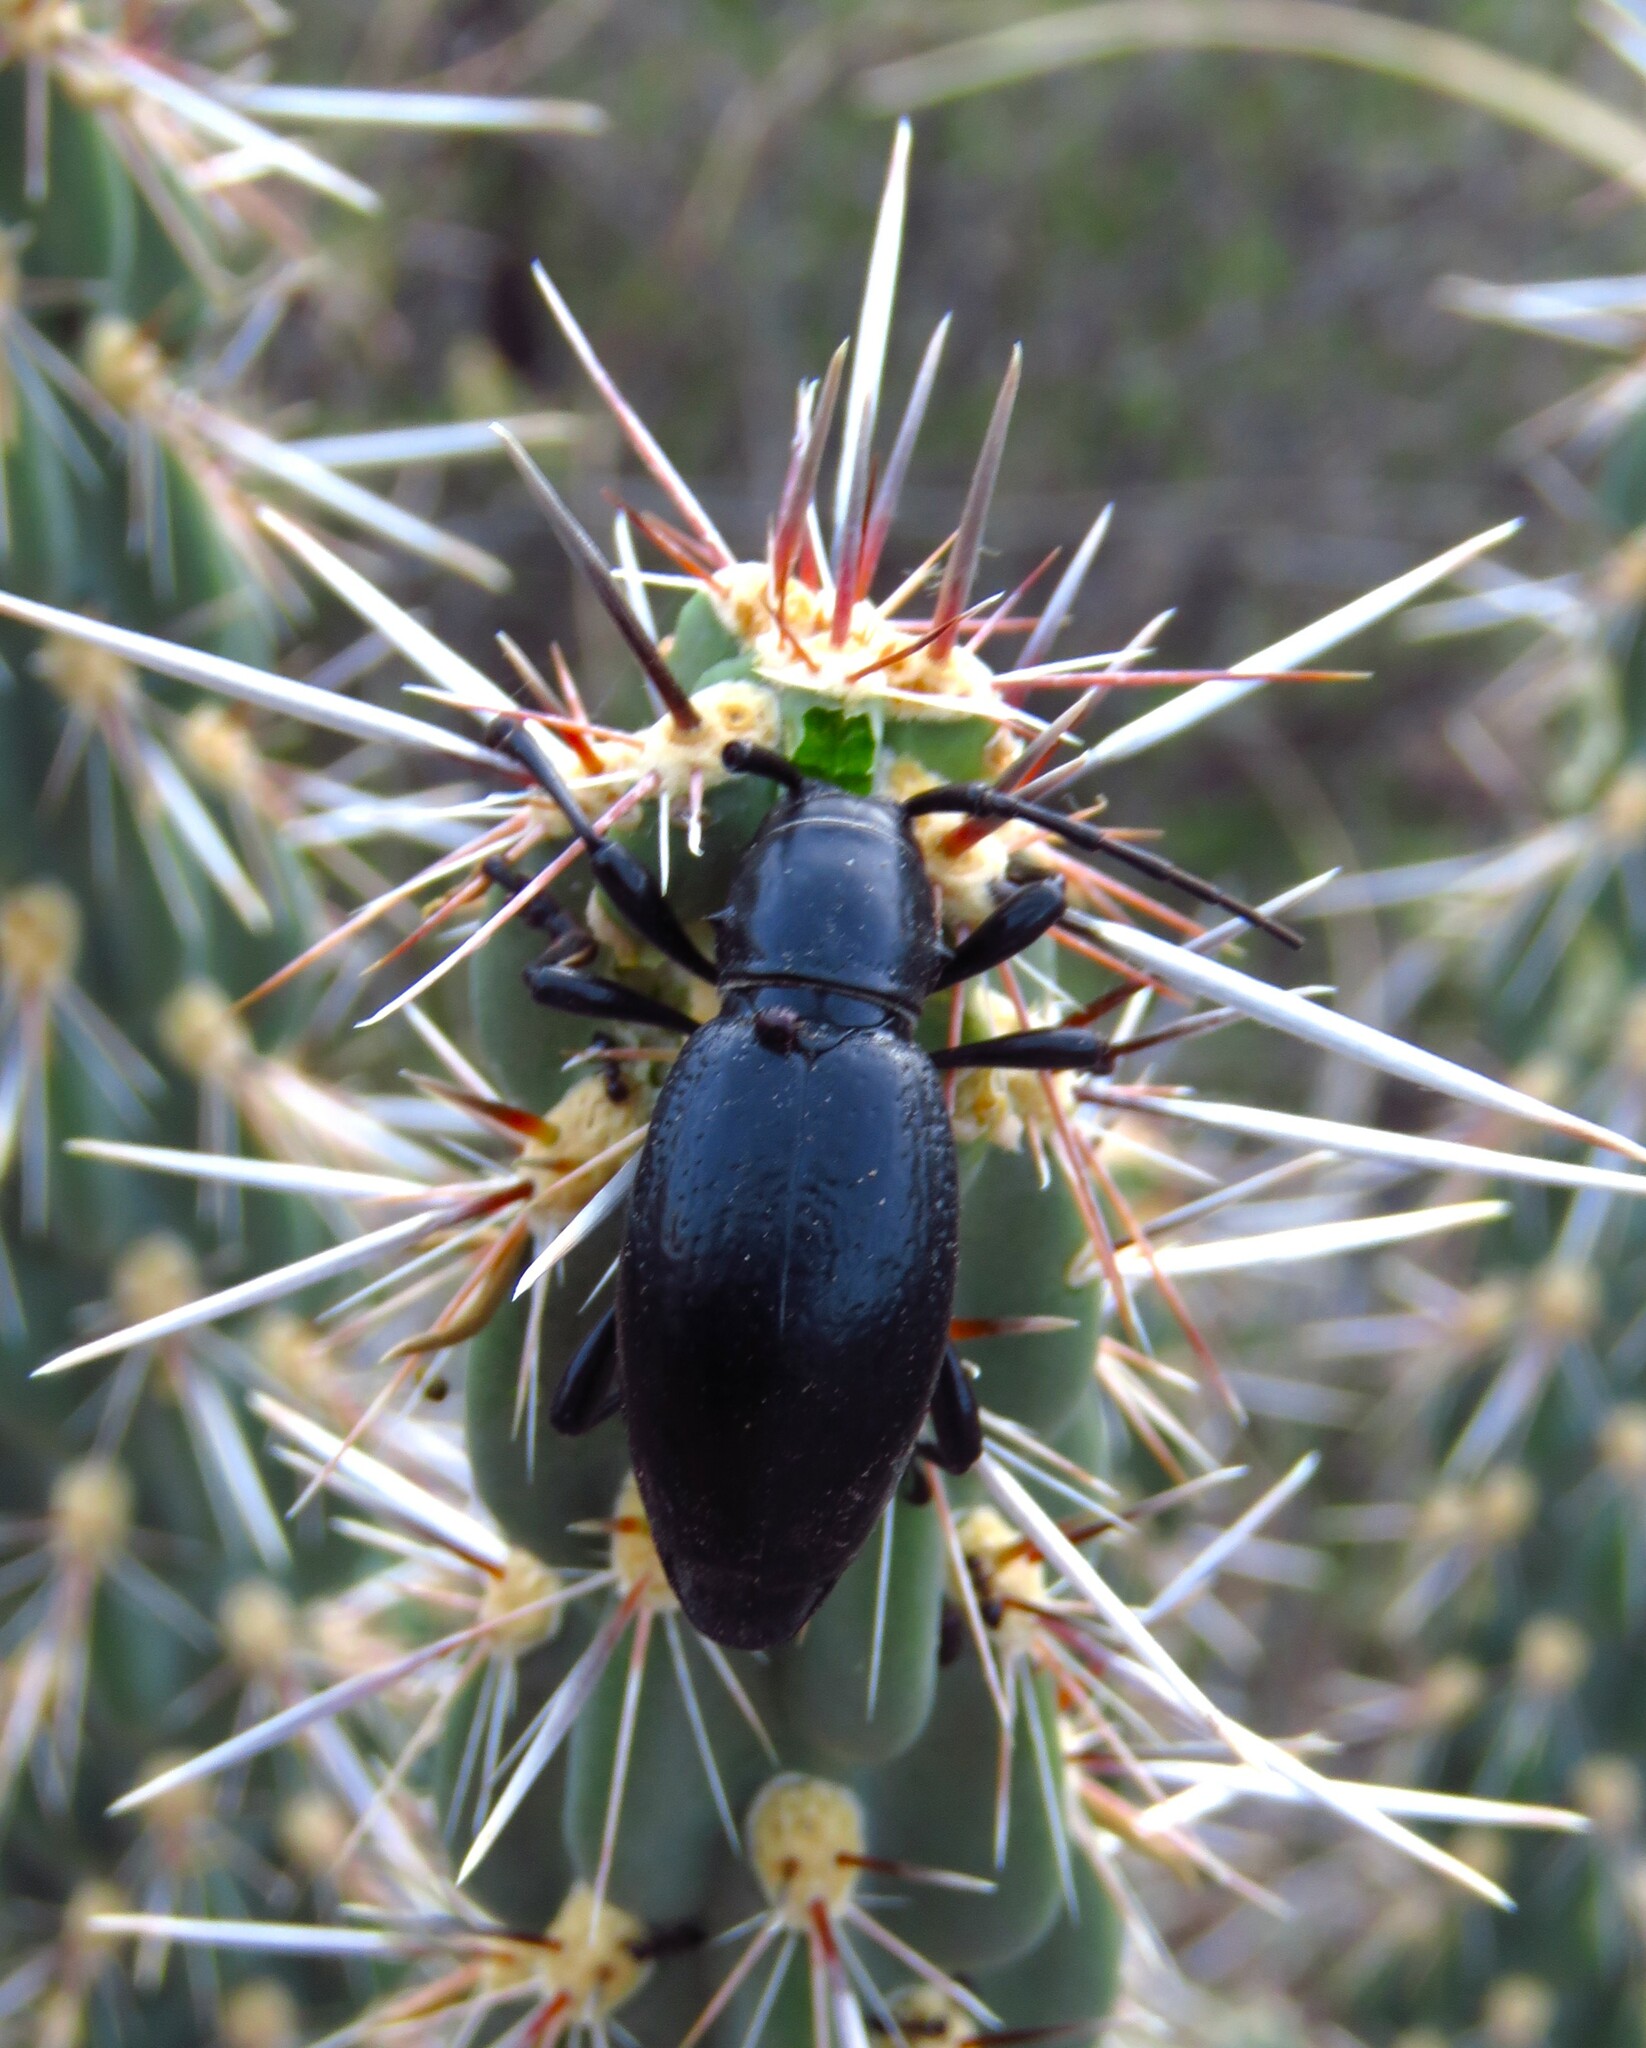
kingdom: Animalia
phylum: Arthropoda
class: Insecta
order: Coleoptera
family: Cerambycidae
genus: Moneilema
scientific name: Moneilema gigas
